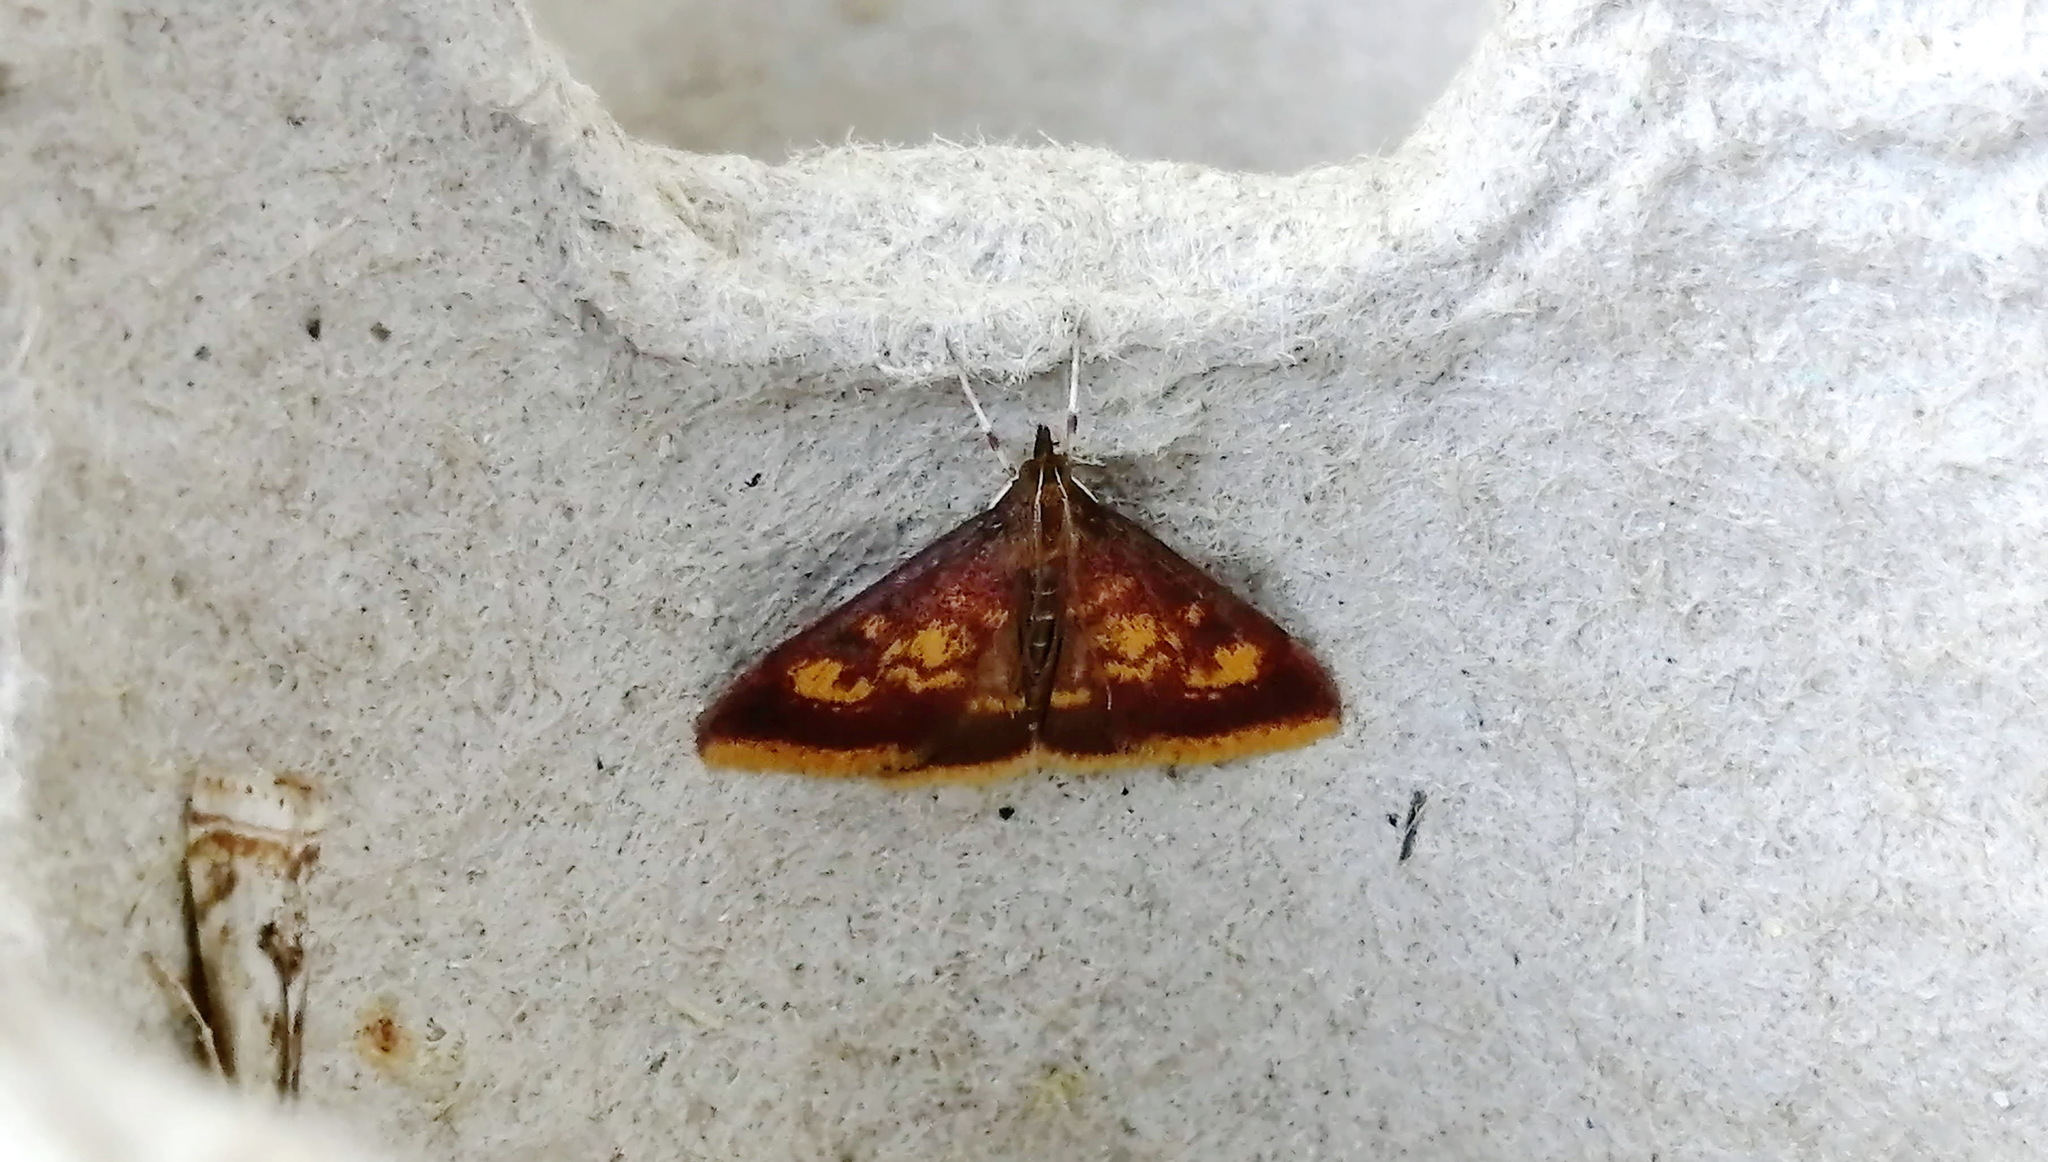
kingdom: Animalia
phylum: Arthropoda
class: Insecta
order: Lepidoptera
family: Crambidae
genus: Pyrausta
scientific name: Pyrausta acrionalis
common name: Mint-loving pyrausta moth
